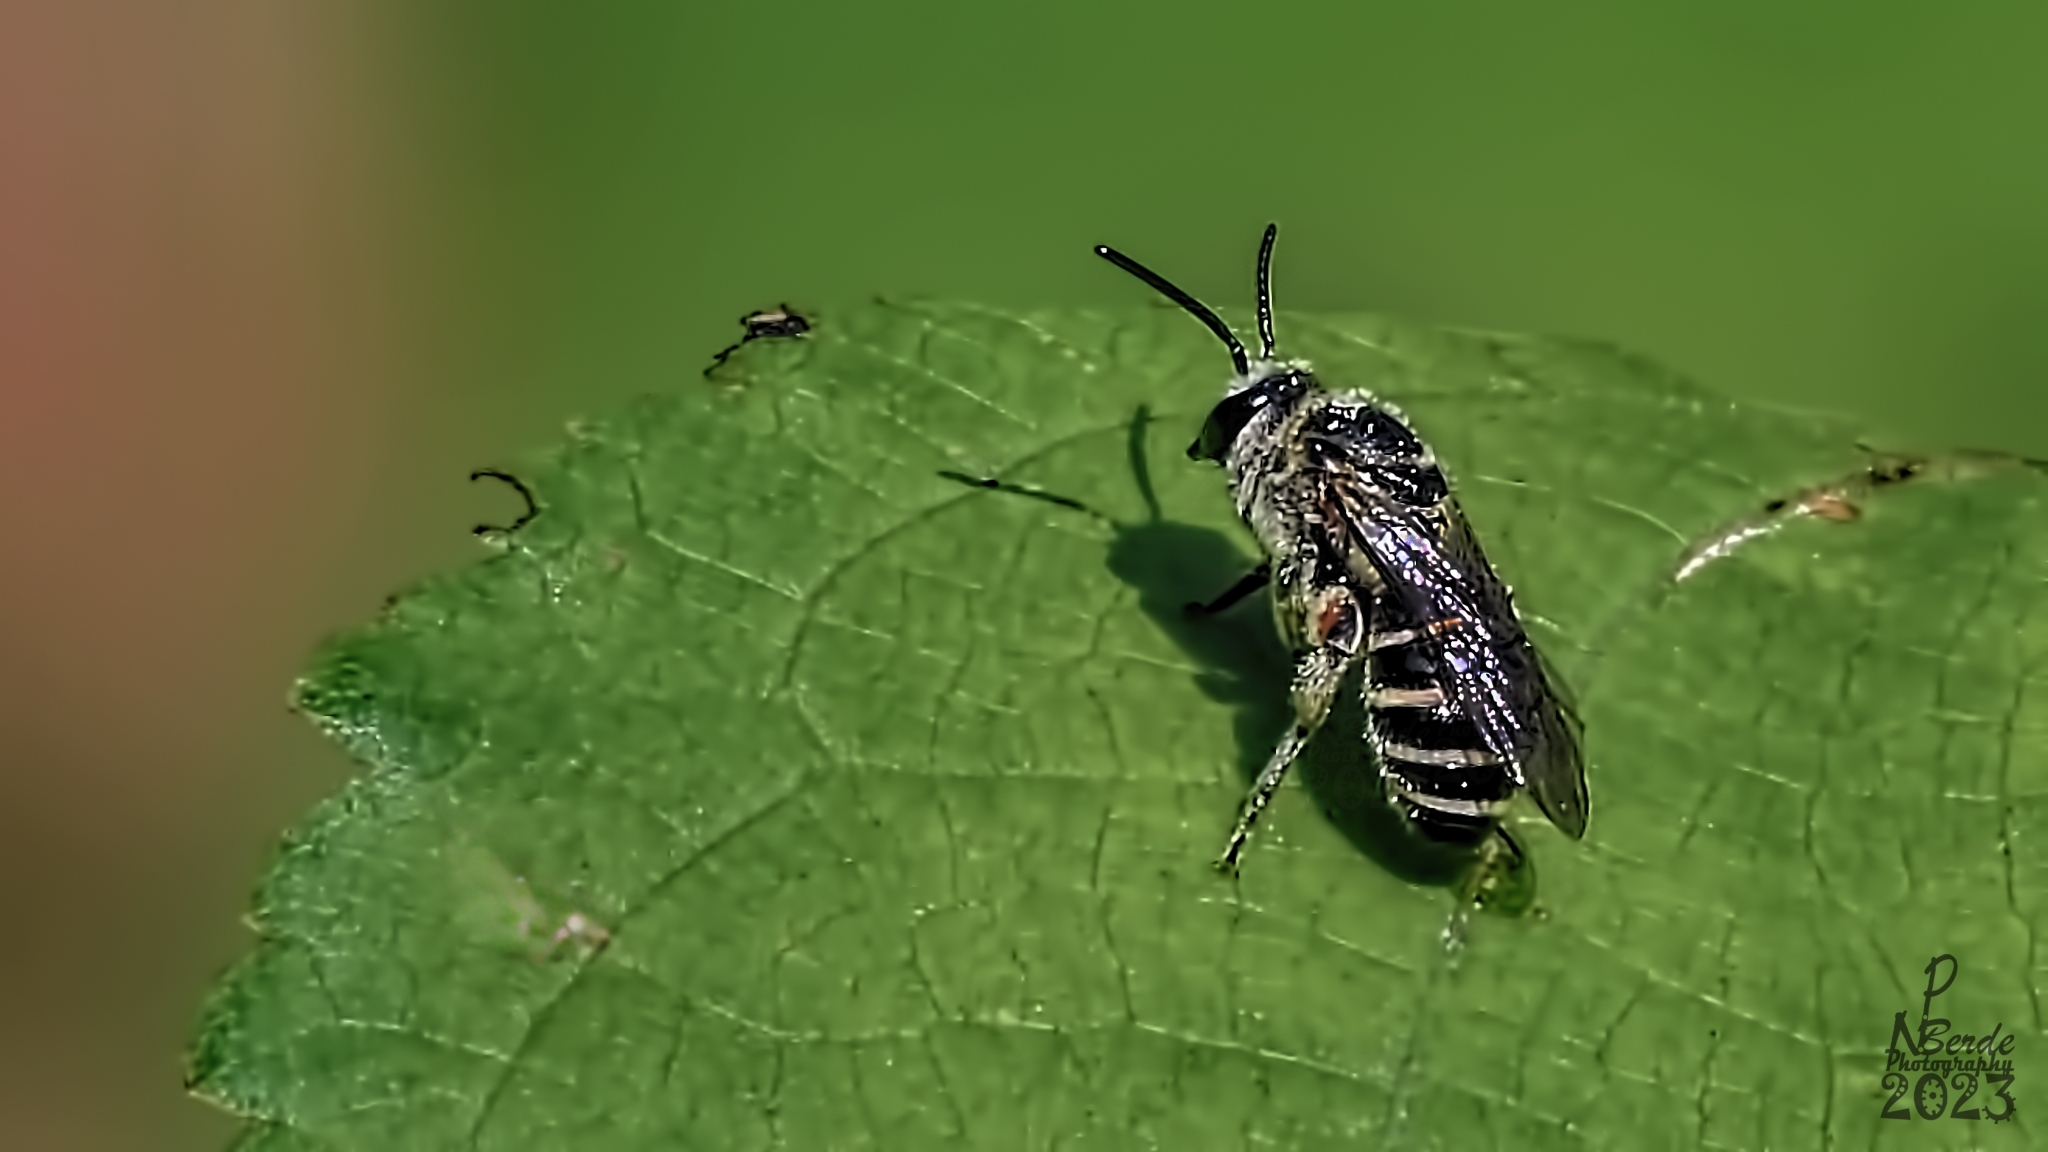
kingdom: Animalia
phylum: Arthropoda
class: Insecta
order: Hymenoptera
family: Halictidae
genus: Nomia
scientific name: Nomia westwoodi
